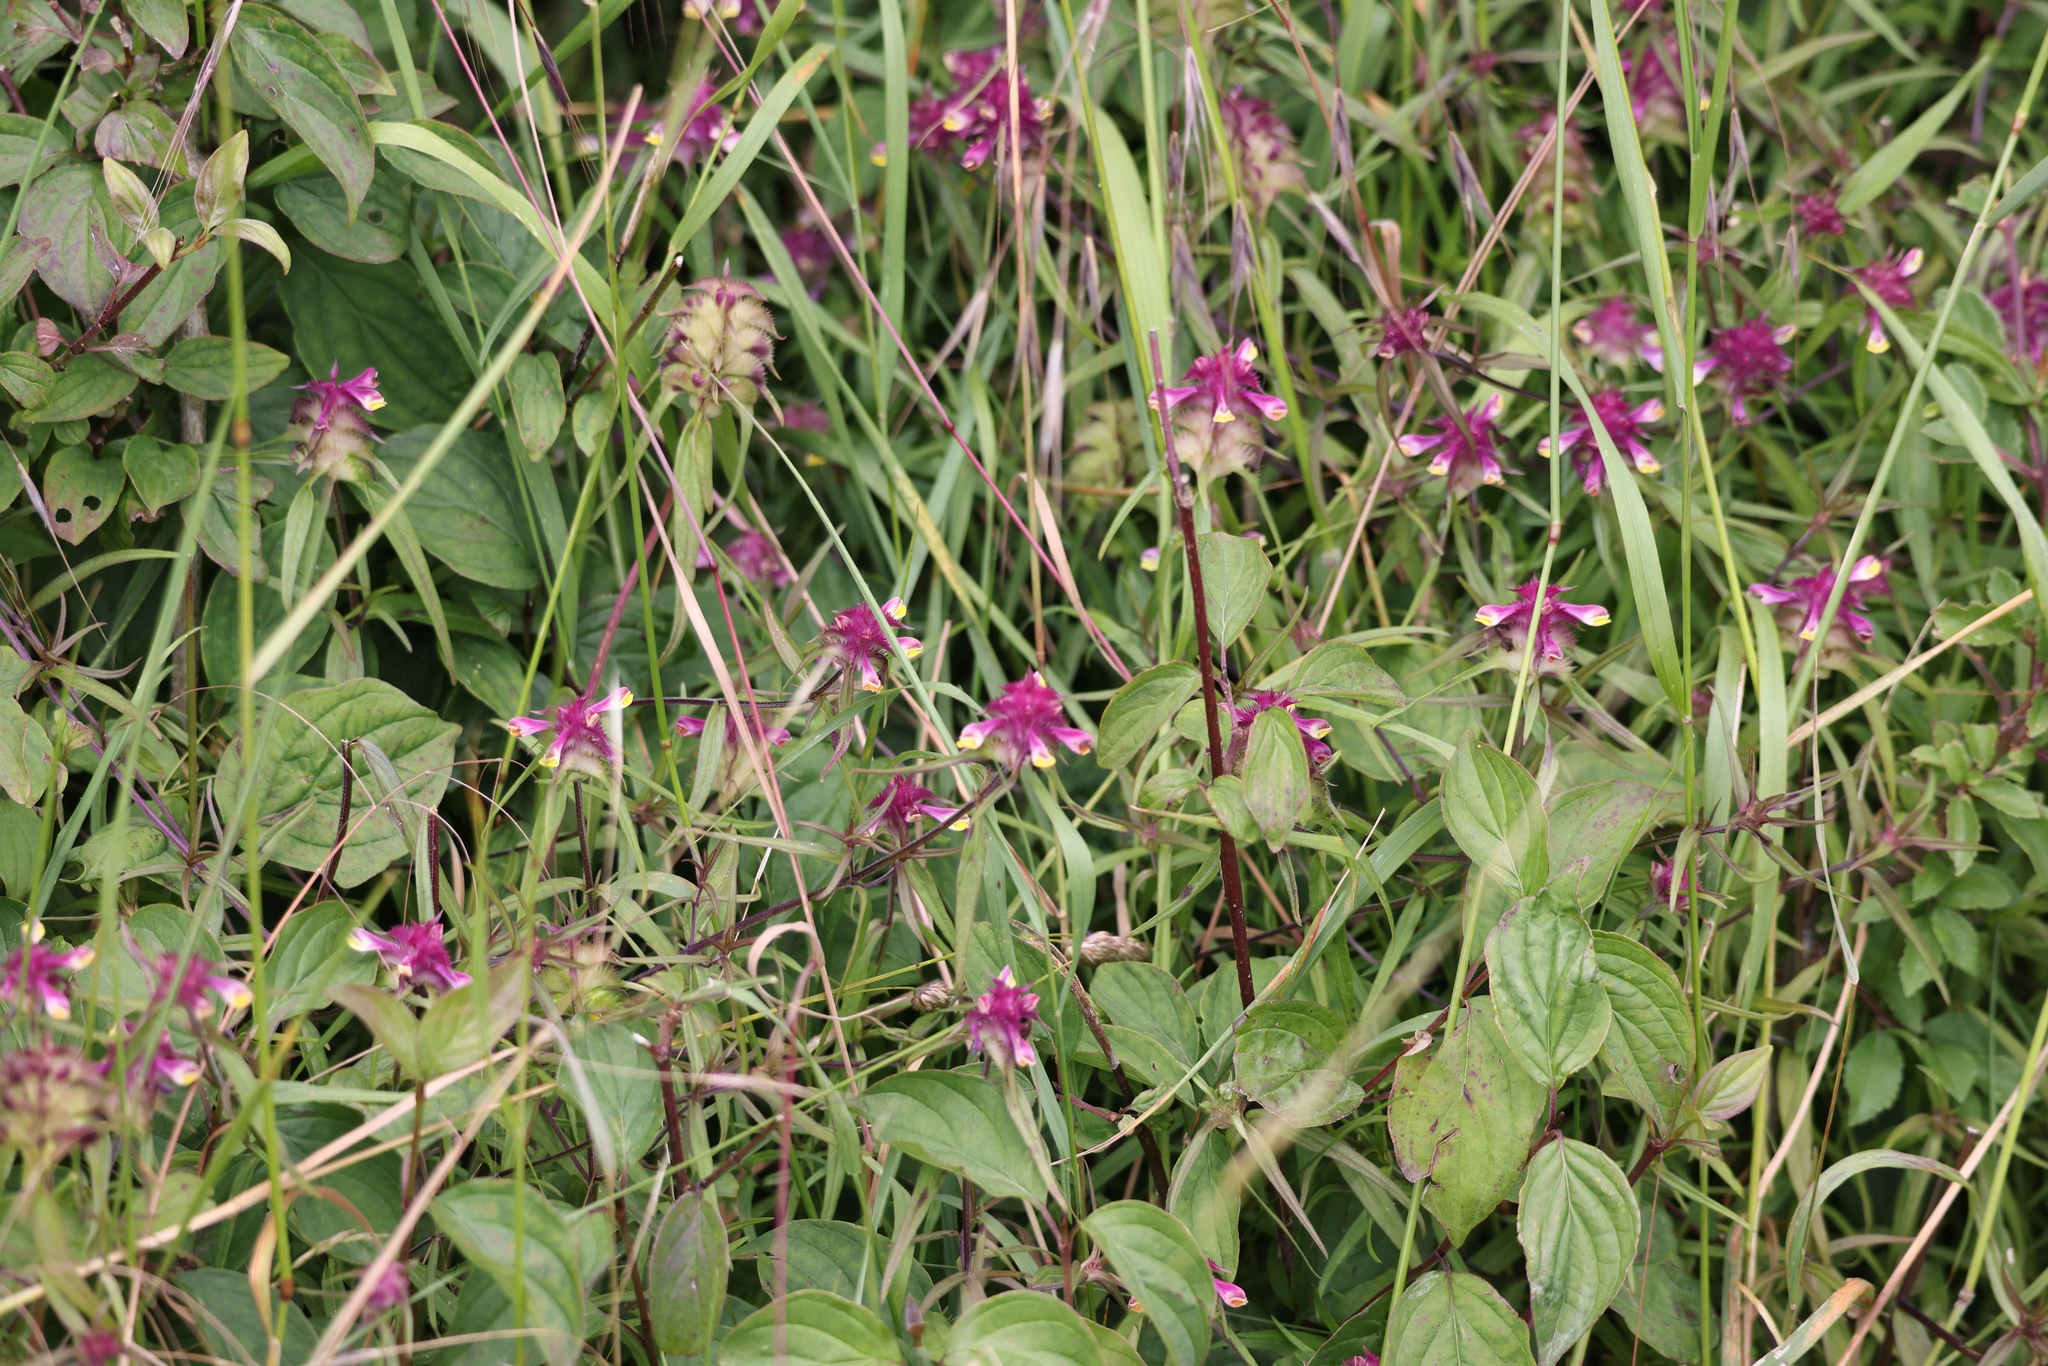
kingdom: Plantae
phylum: Tracheophyta
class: Magnoliopsida
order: Lamiales
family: Orobanchaceae
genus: Melampyrum
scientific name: Melampyrum cristatum
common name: Crested cow-wheat
